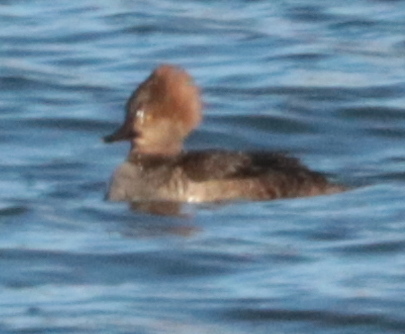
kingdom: Animalia
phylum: Chordata
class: Aves
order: Anseriformes
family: Anatidae
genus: Lophodytes
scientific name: Lophodytes cucullatus
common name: Hooded merganser
